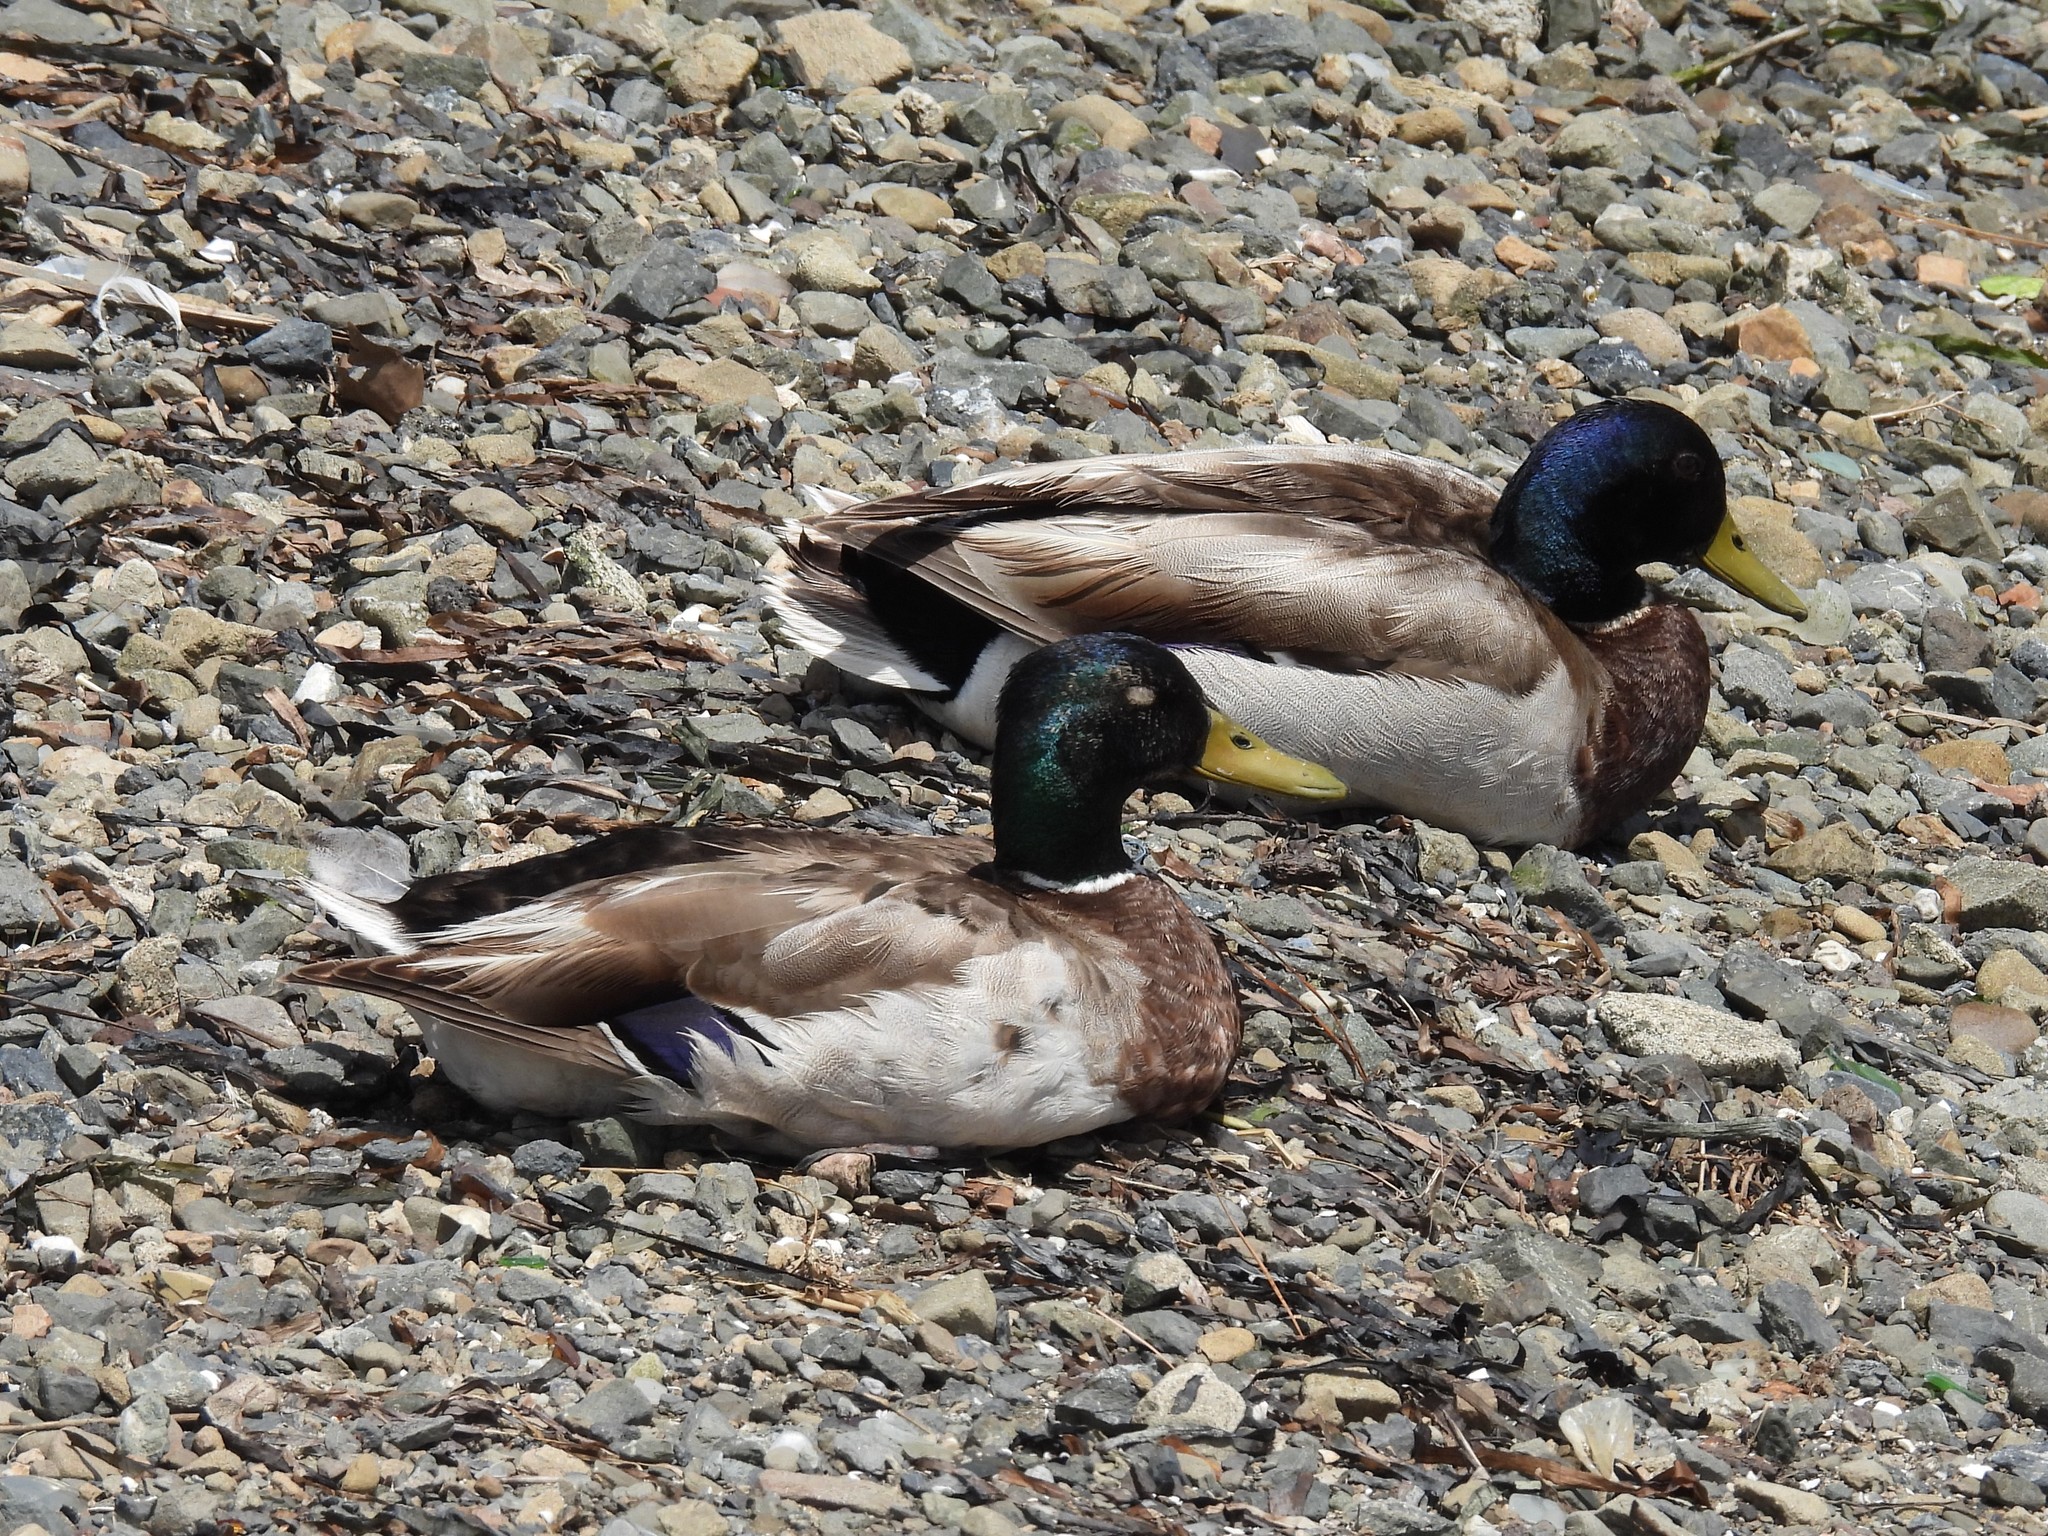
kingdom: Animalia
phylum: Chordata
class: Aves
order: Anseriformes
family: Anatidae
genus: Anas
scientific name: Anas platyrhynchos
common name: Mallard
